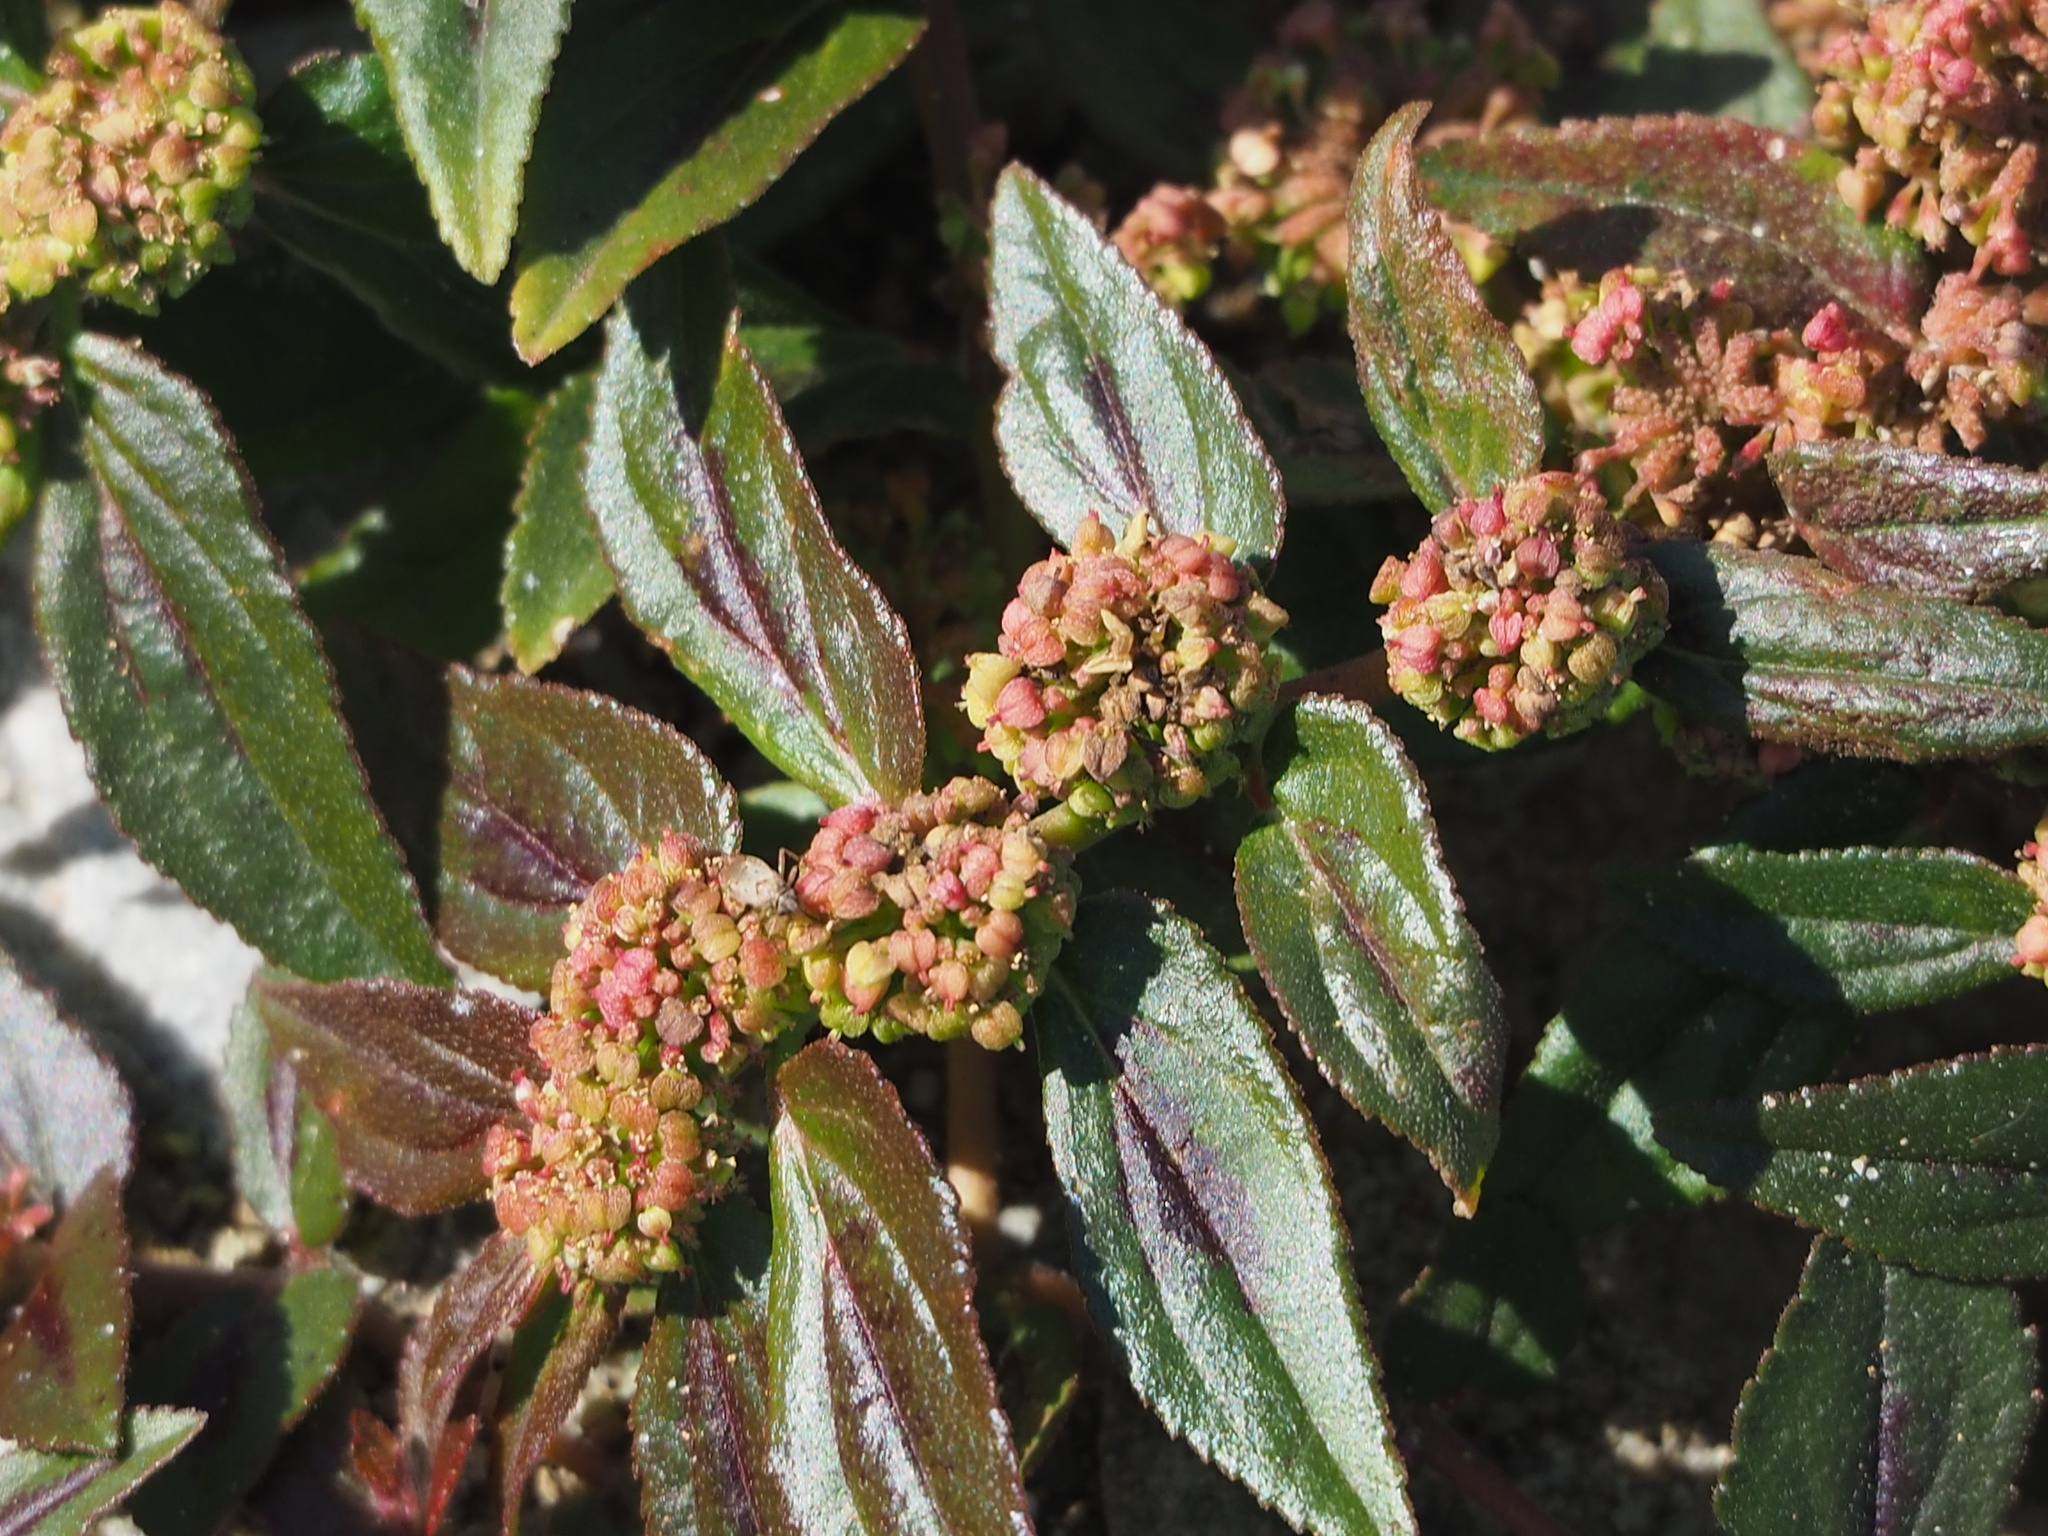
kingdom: Plantae
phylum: Tracheophyta
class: Magnoliopsida
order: Malpighiales
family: Euphorbiaceae
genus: Euphorbia
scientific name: Euphorbia hirta
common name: Pillpod sandmat
